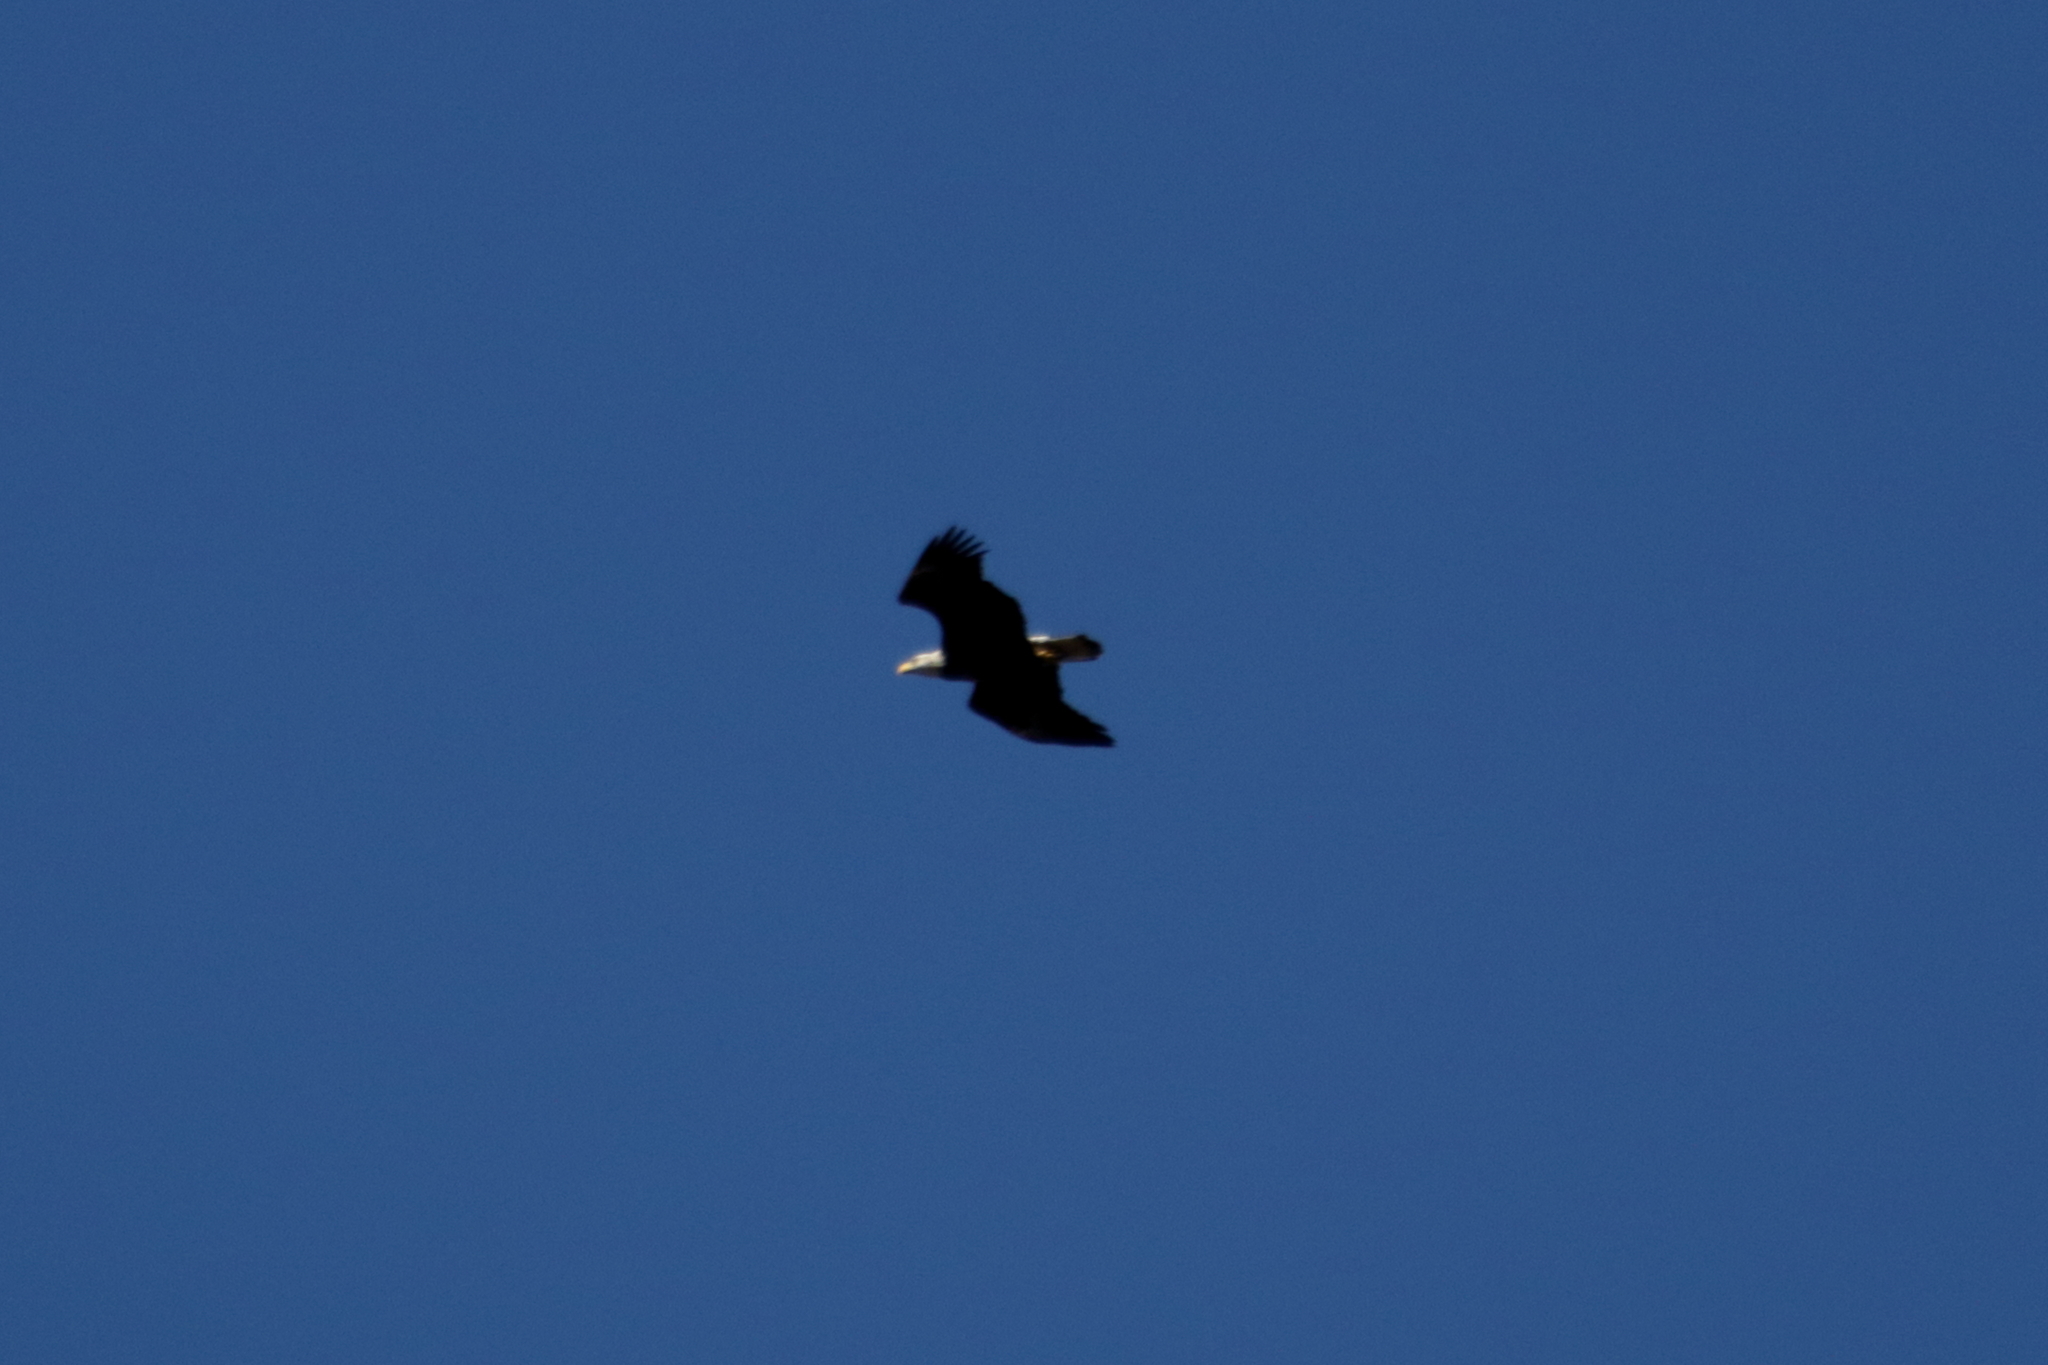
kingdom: Animalia
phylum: Chordata
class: Aves
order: Accipitriformes
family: Accipitridae
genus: Haliaeetus
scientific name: Haliaeetus leucocephalus
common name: Bald eagle
